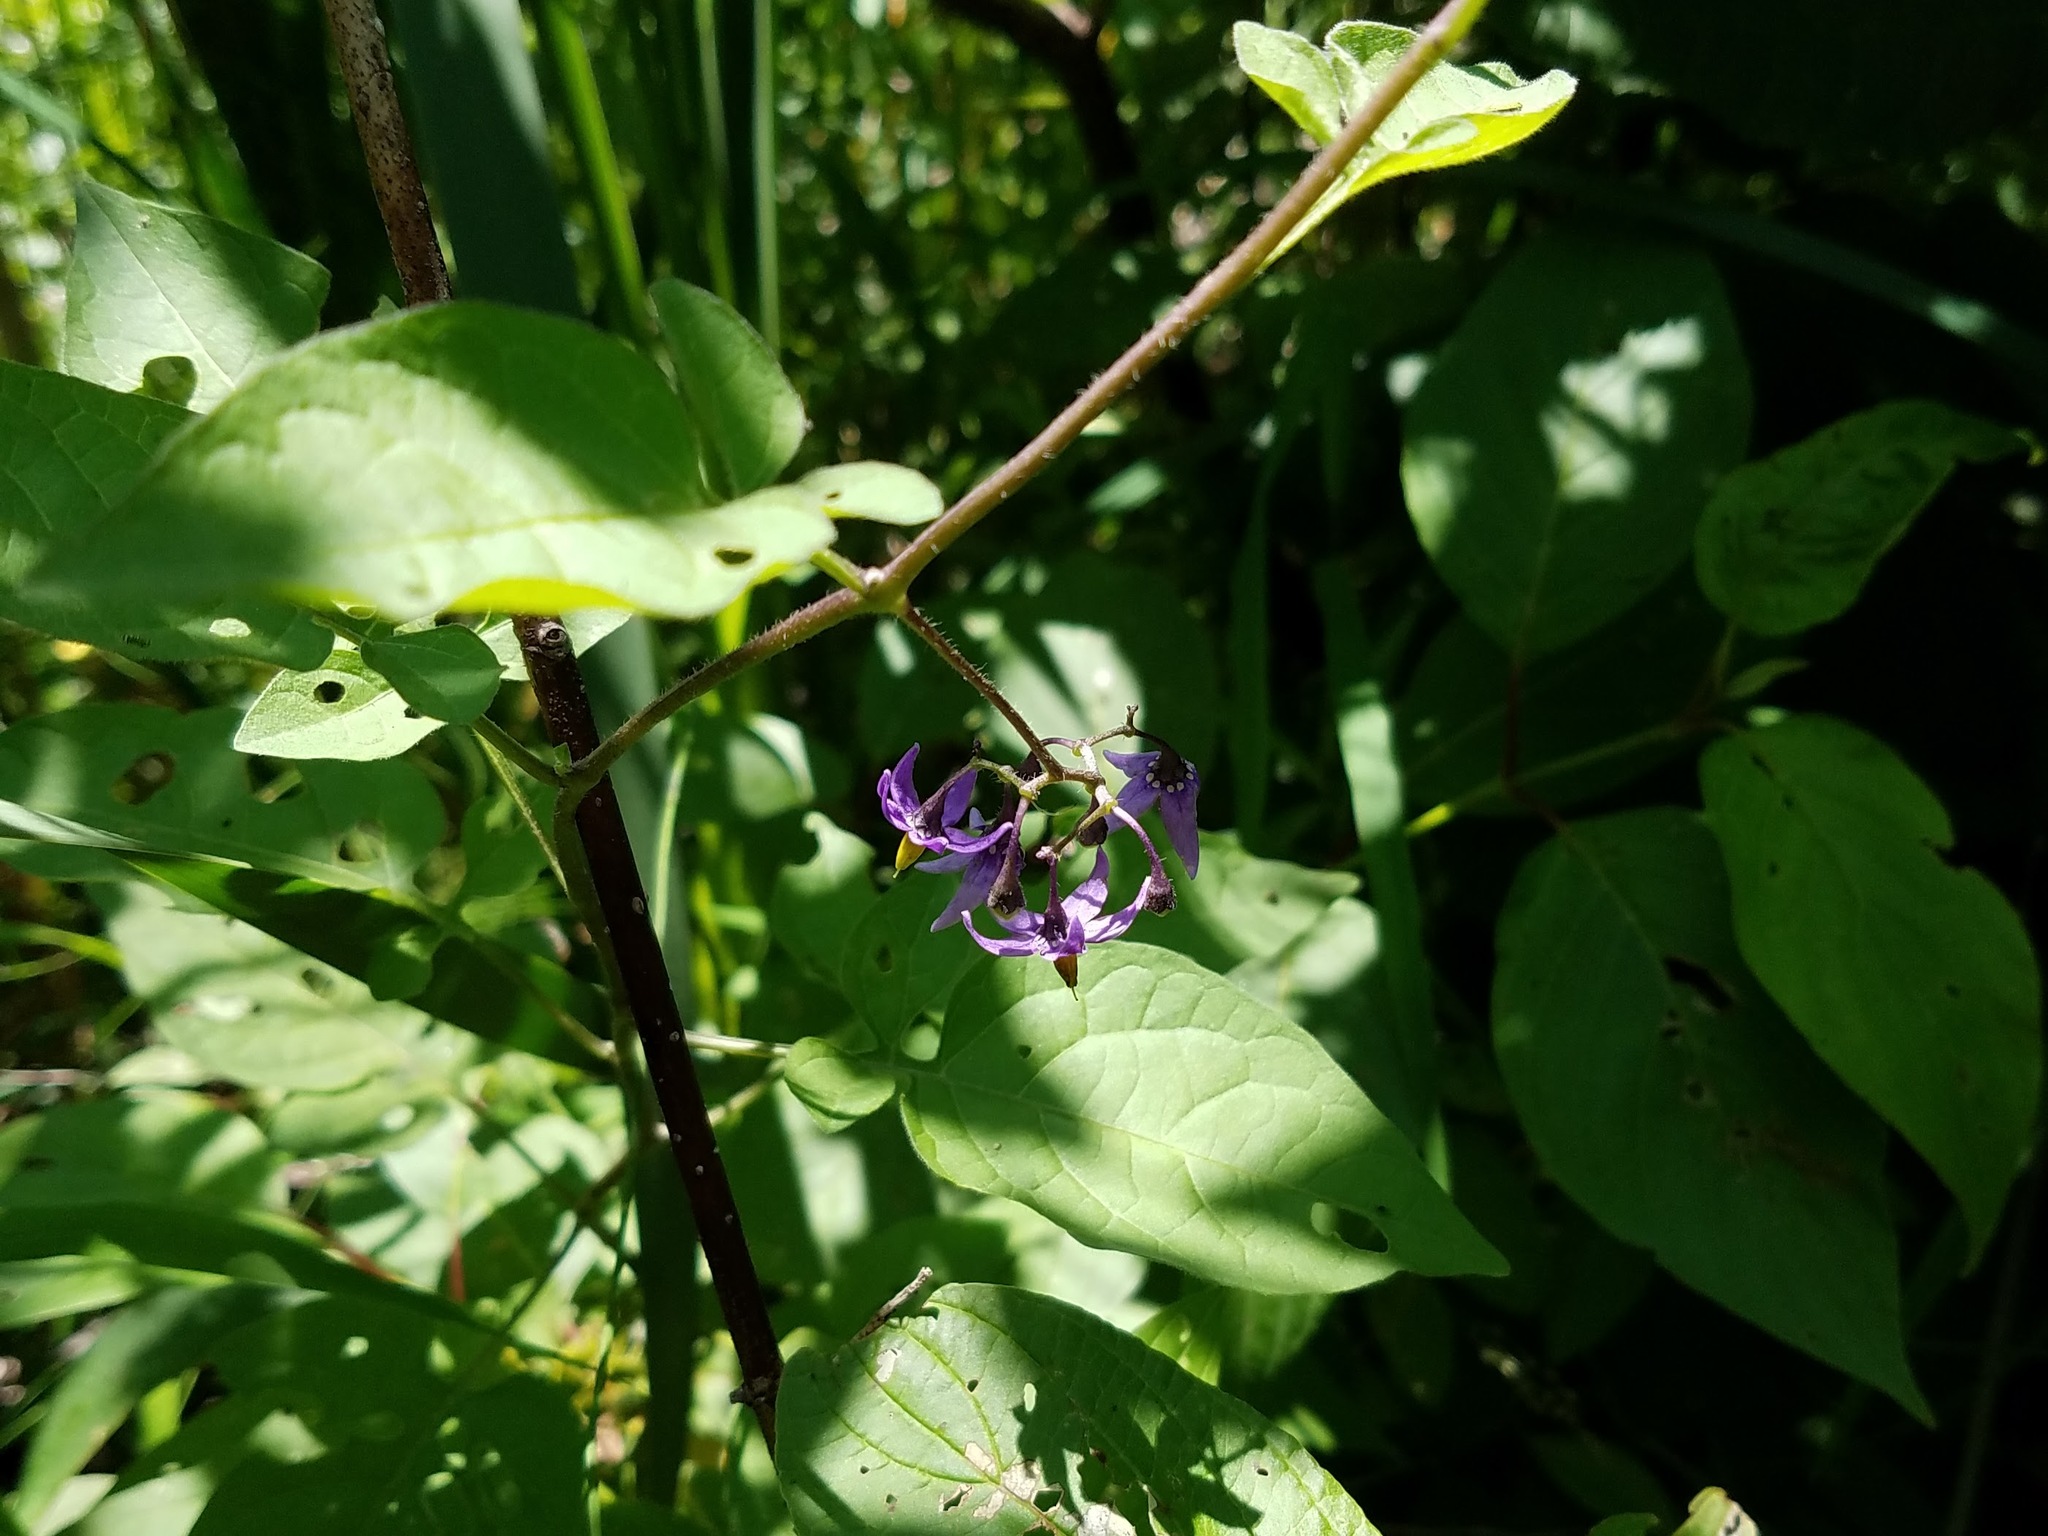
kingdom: Plantae
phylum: Tracheophyta
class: Magnoliopsida
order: Solanales
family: Solanaceae
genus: Solanum
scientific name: Solanum dulcamara
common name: Climbing nightshade
